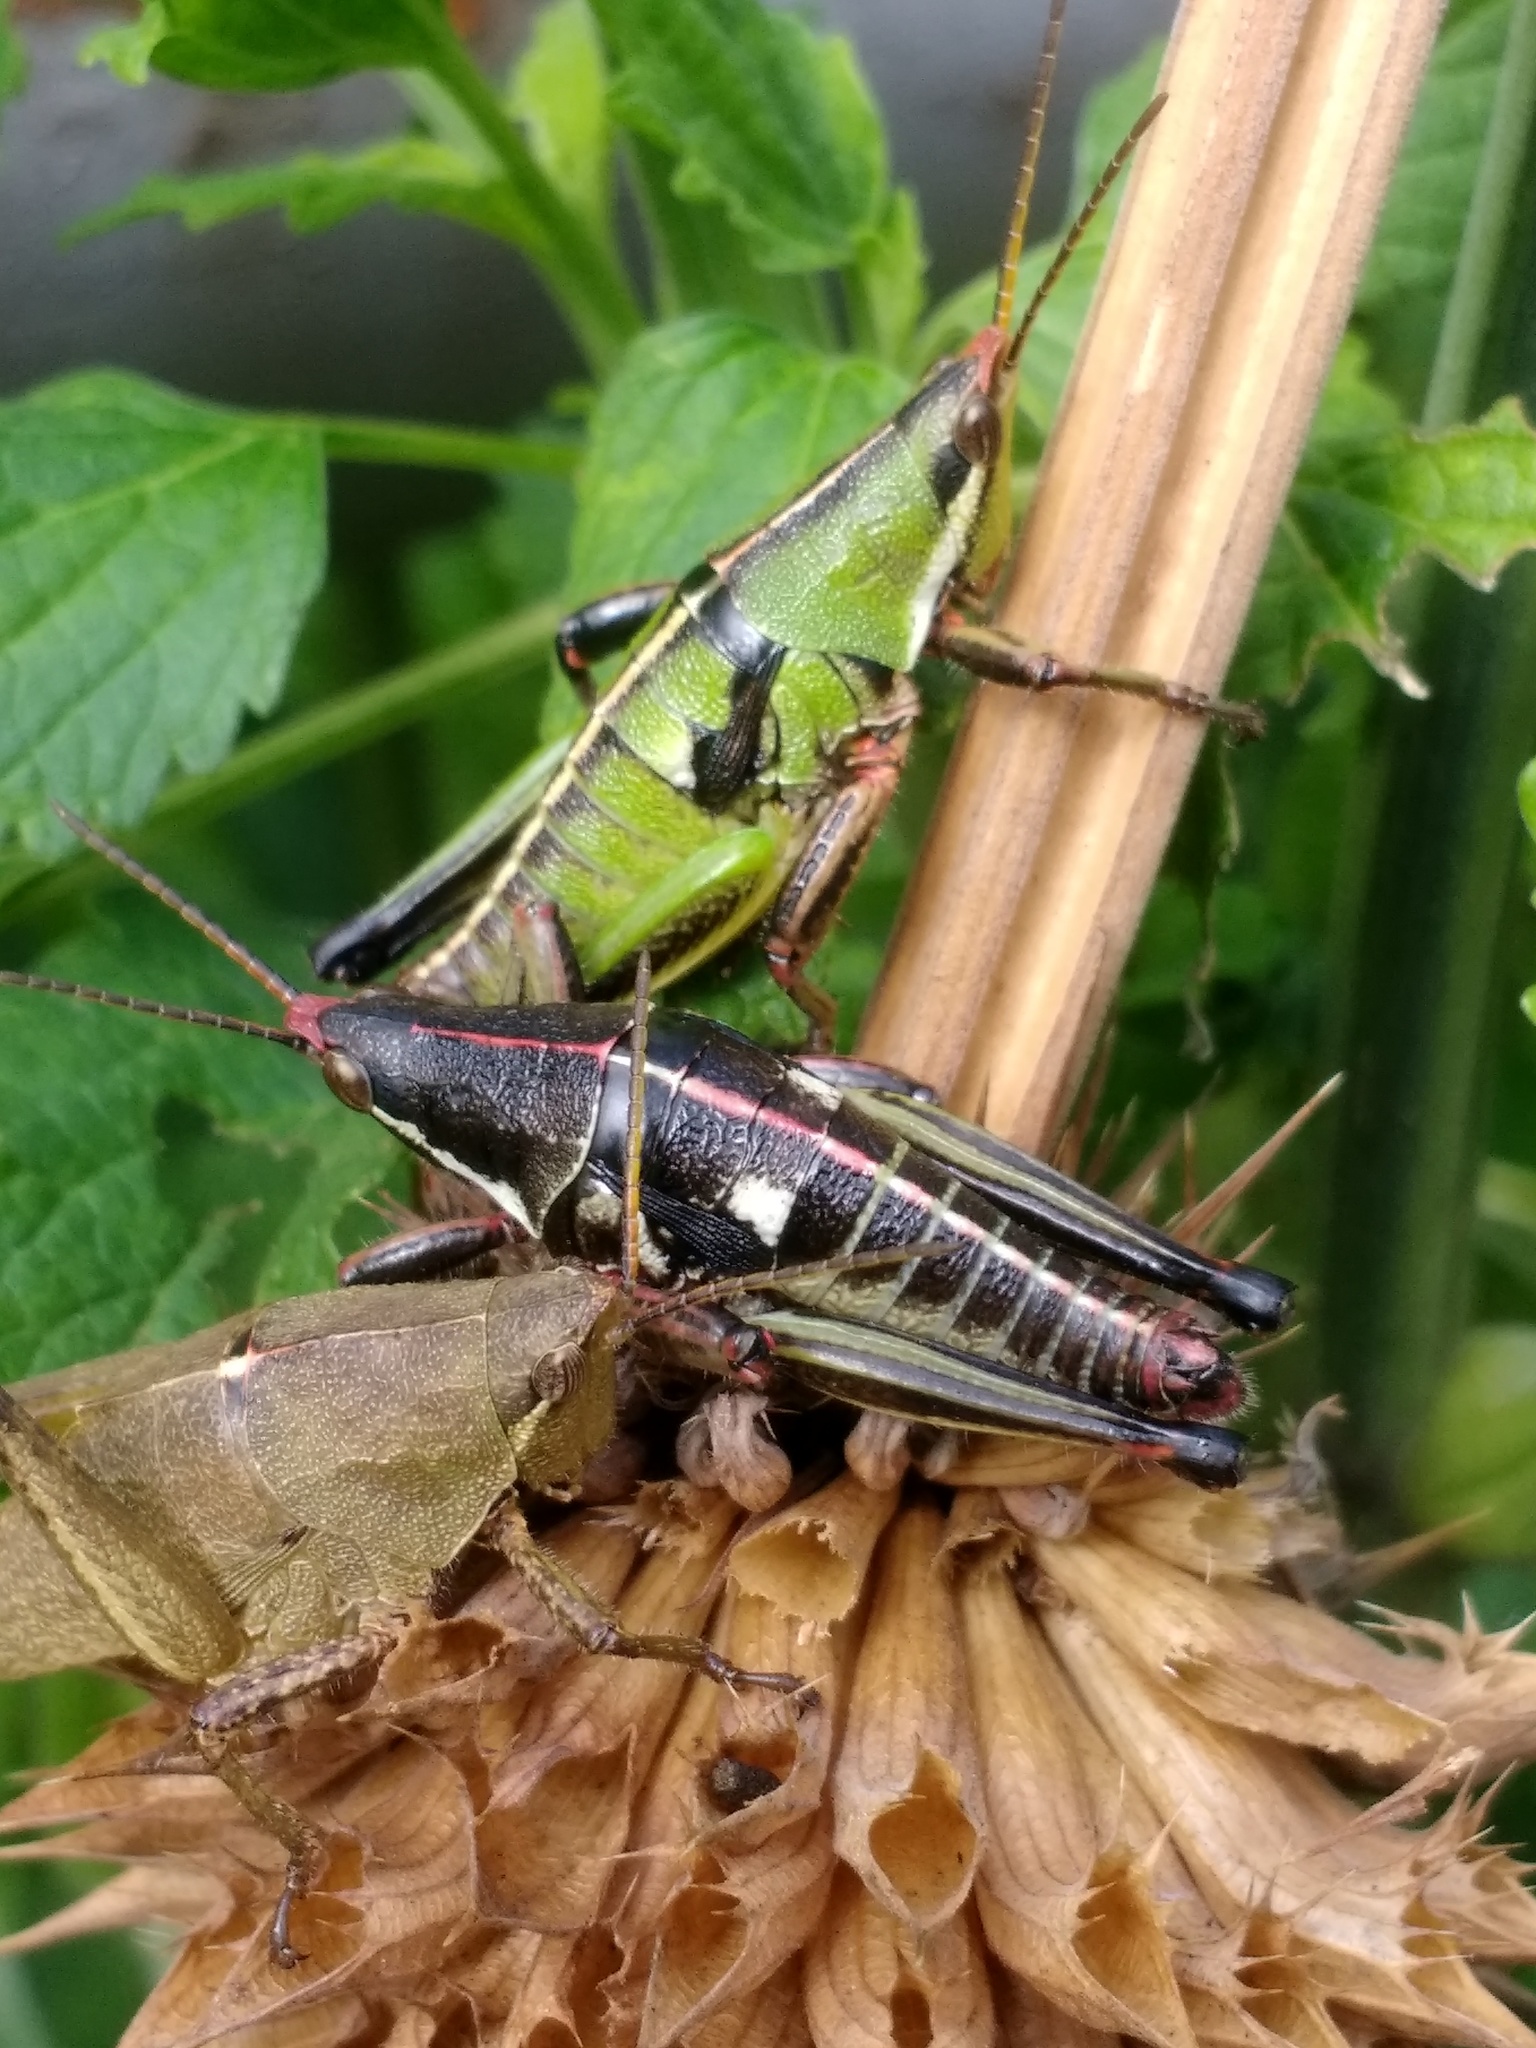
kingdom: Animalia
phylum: Arthropoda
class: Insecta
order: Orthoptera
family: Pyrgomorphidae
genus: Sphenarium
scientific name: Sphenarium purpurascens
